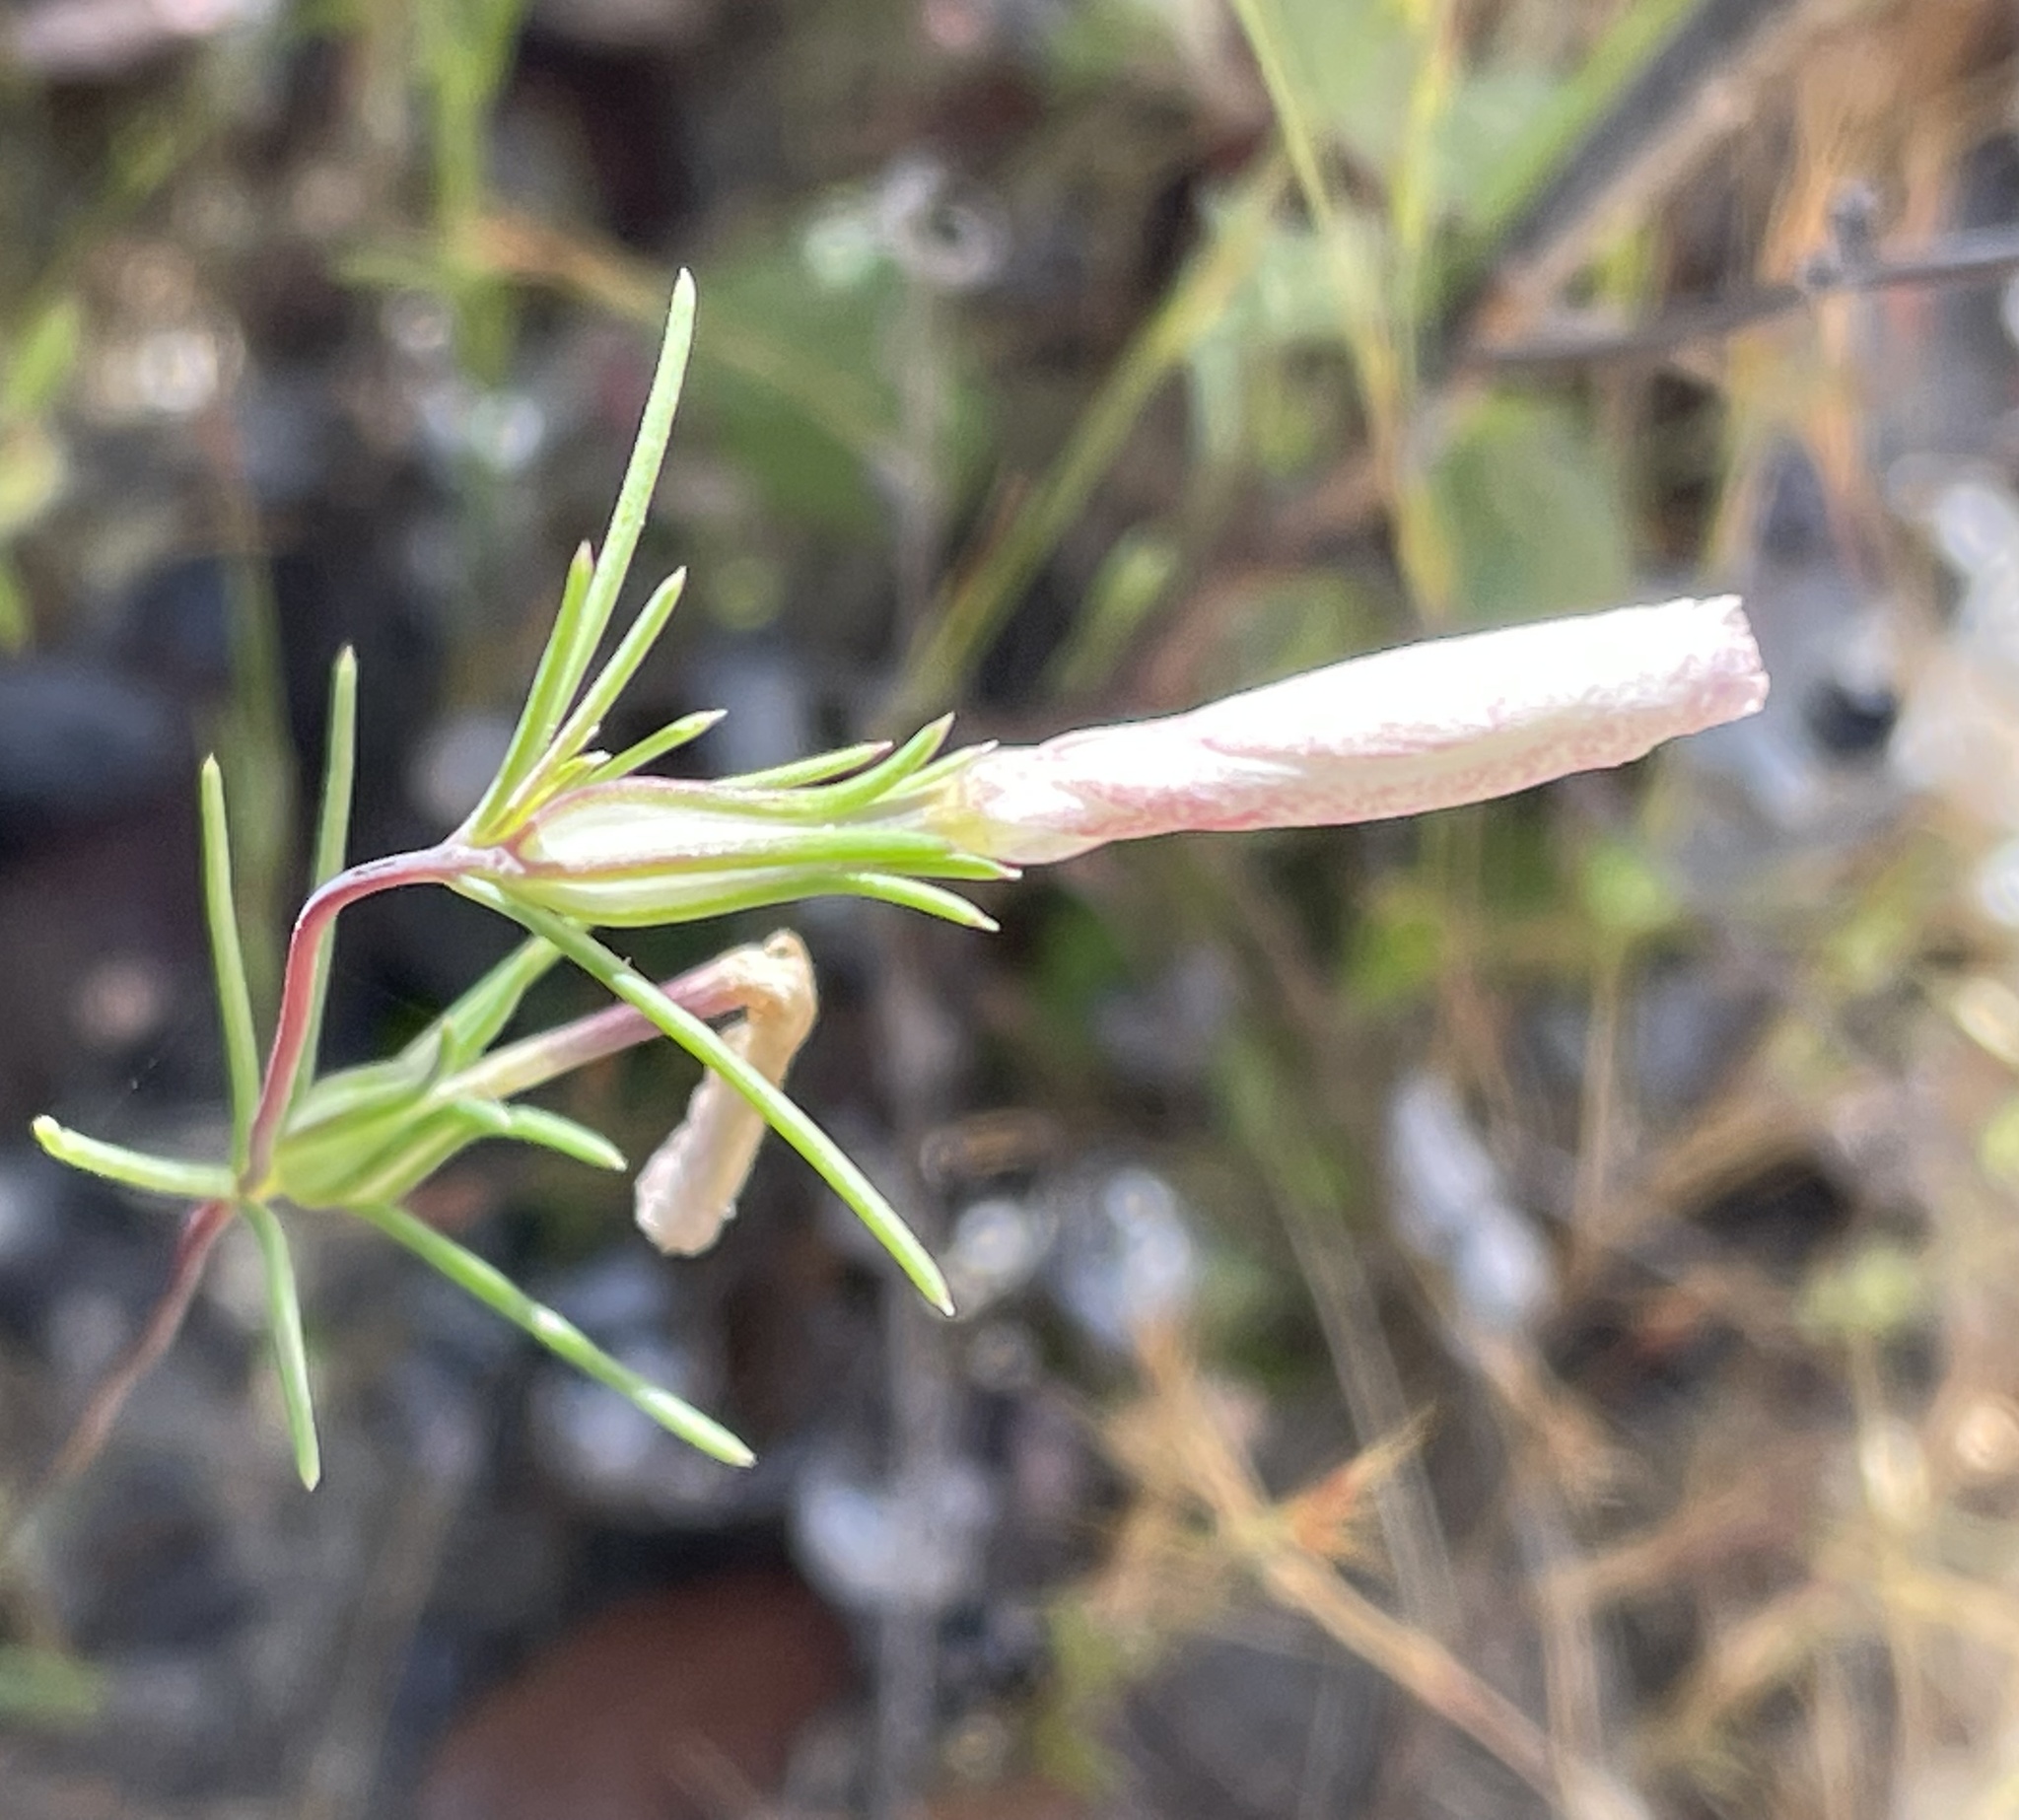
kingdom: Plantae
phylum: Tracheophyta
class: Magnoliopsida
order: Ericales
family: Polemoniaceae
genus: Linanthus
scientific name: Linanthus dichotomus
